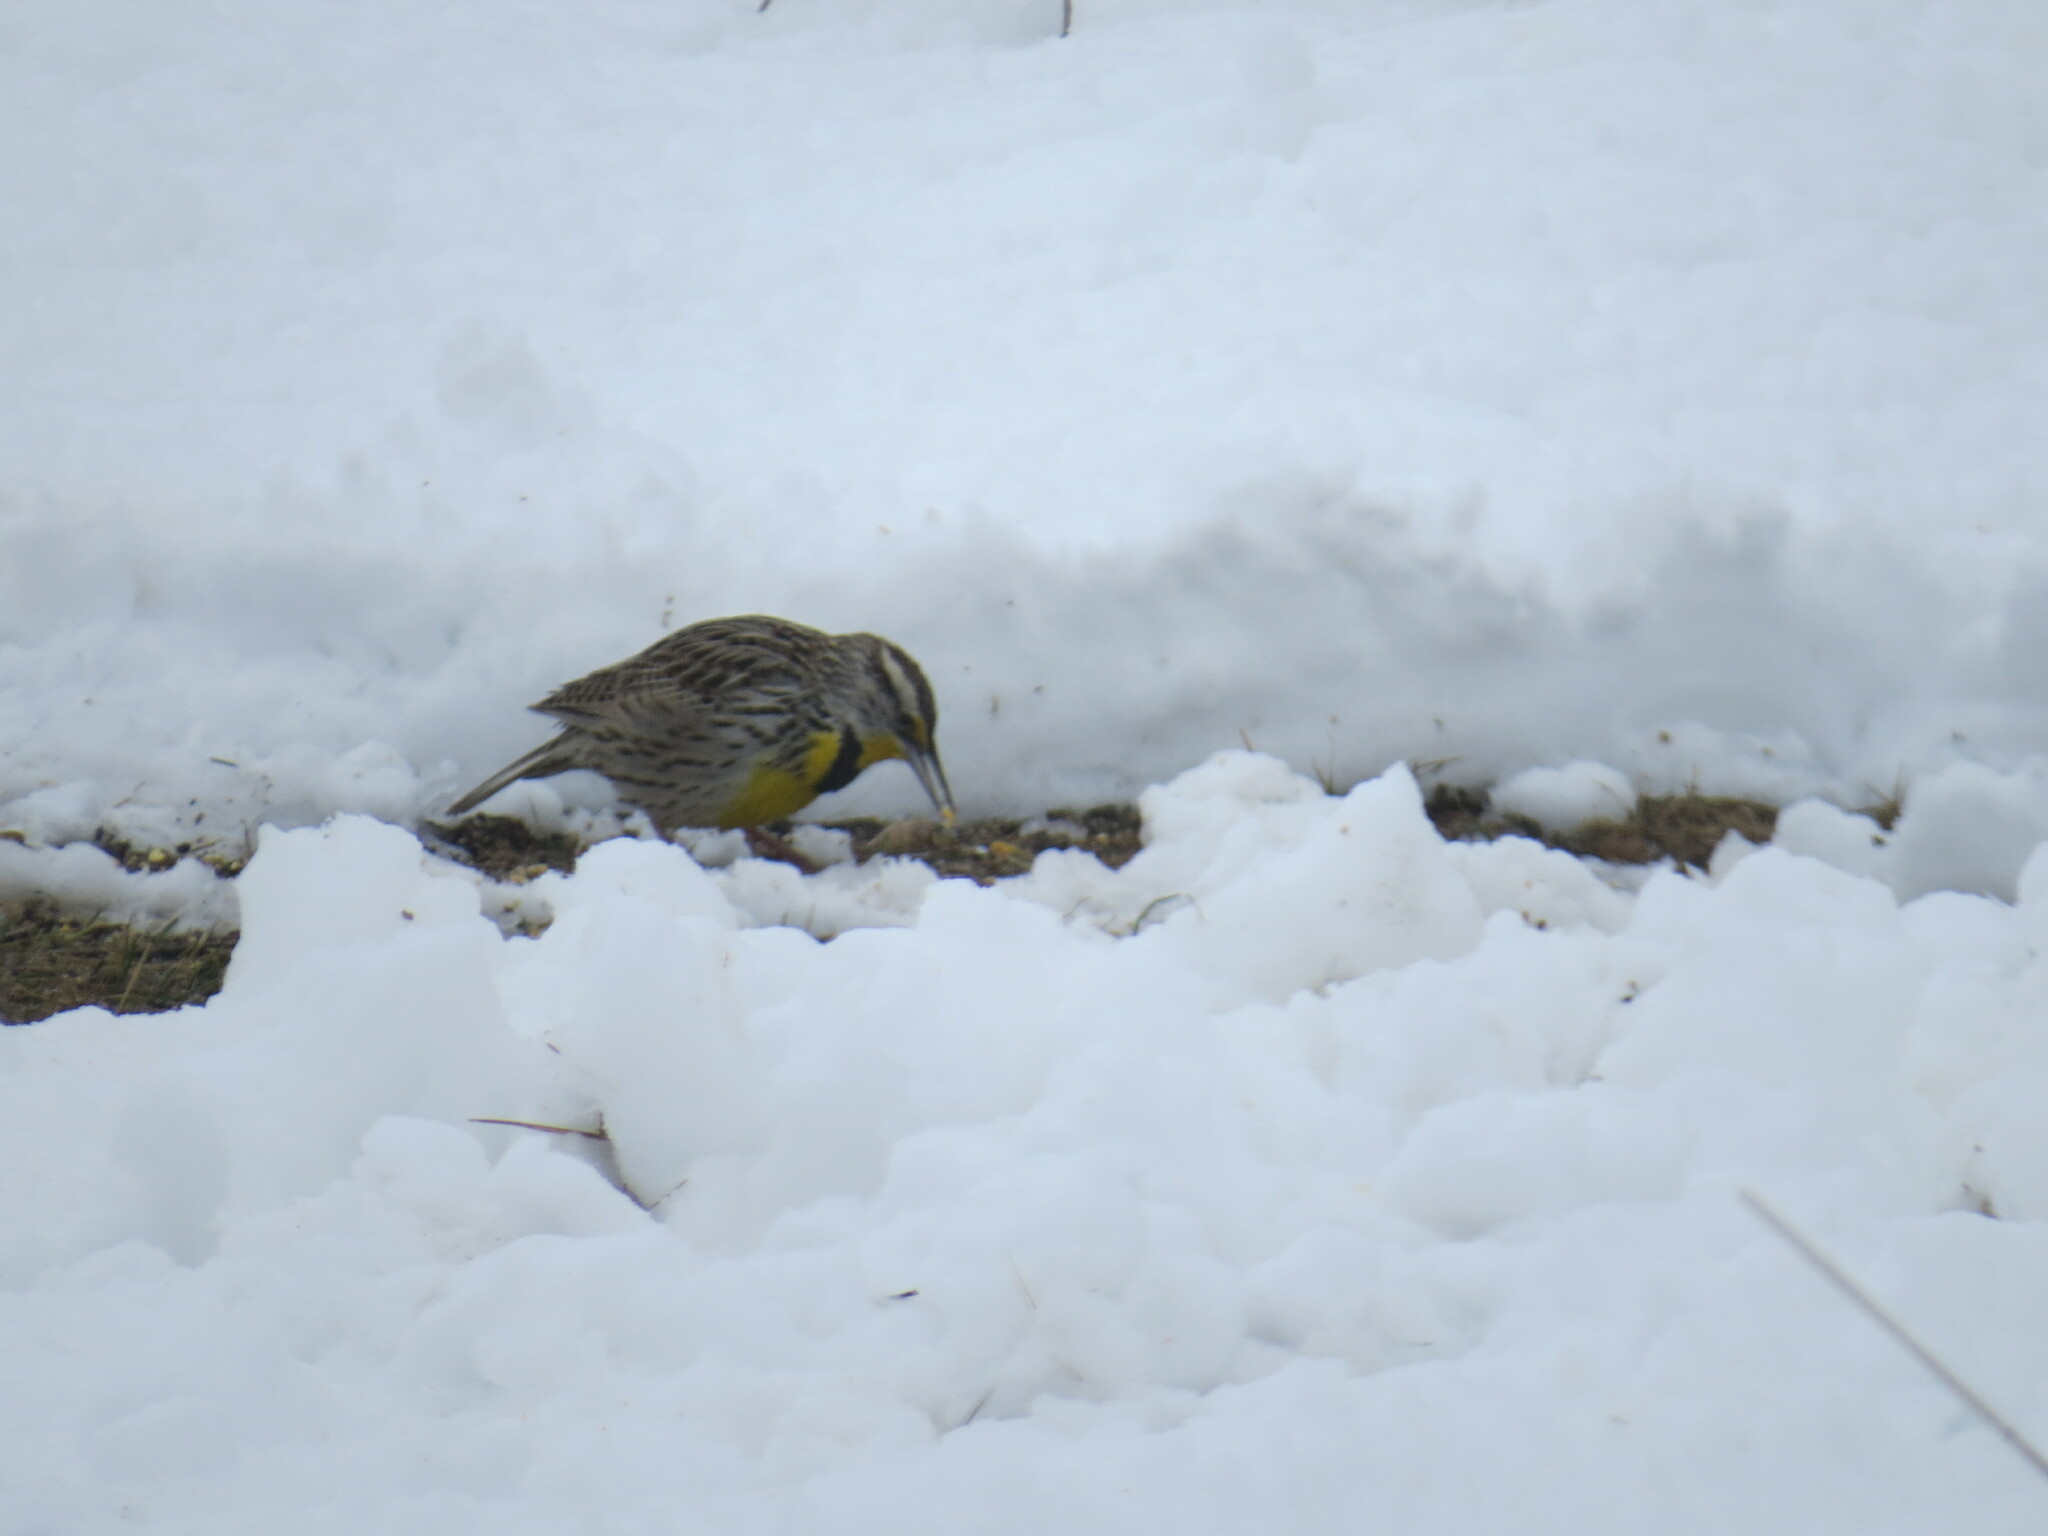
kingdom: Animalia
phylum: Chordata
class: Aves
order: Passeriformes
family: Icteridae
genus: Sturnella
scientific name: Sturnella neglecta
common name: Western meadowlark
